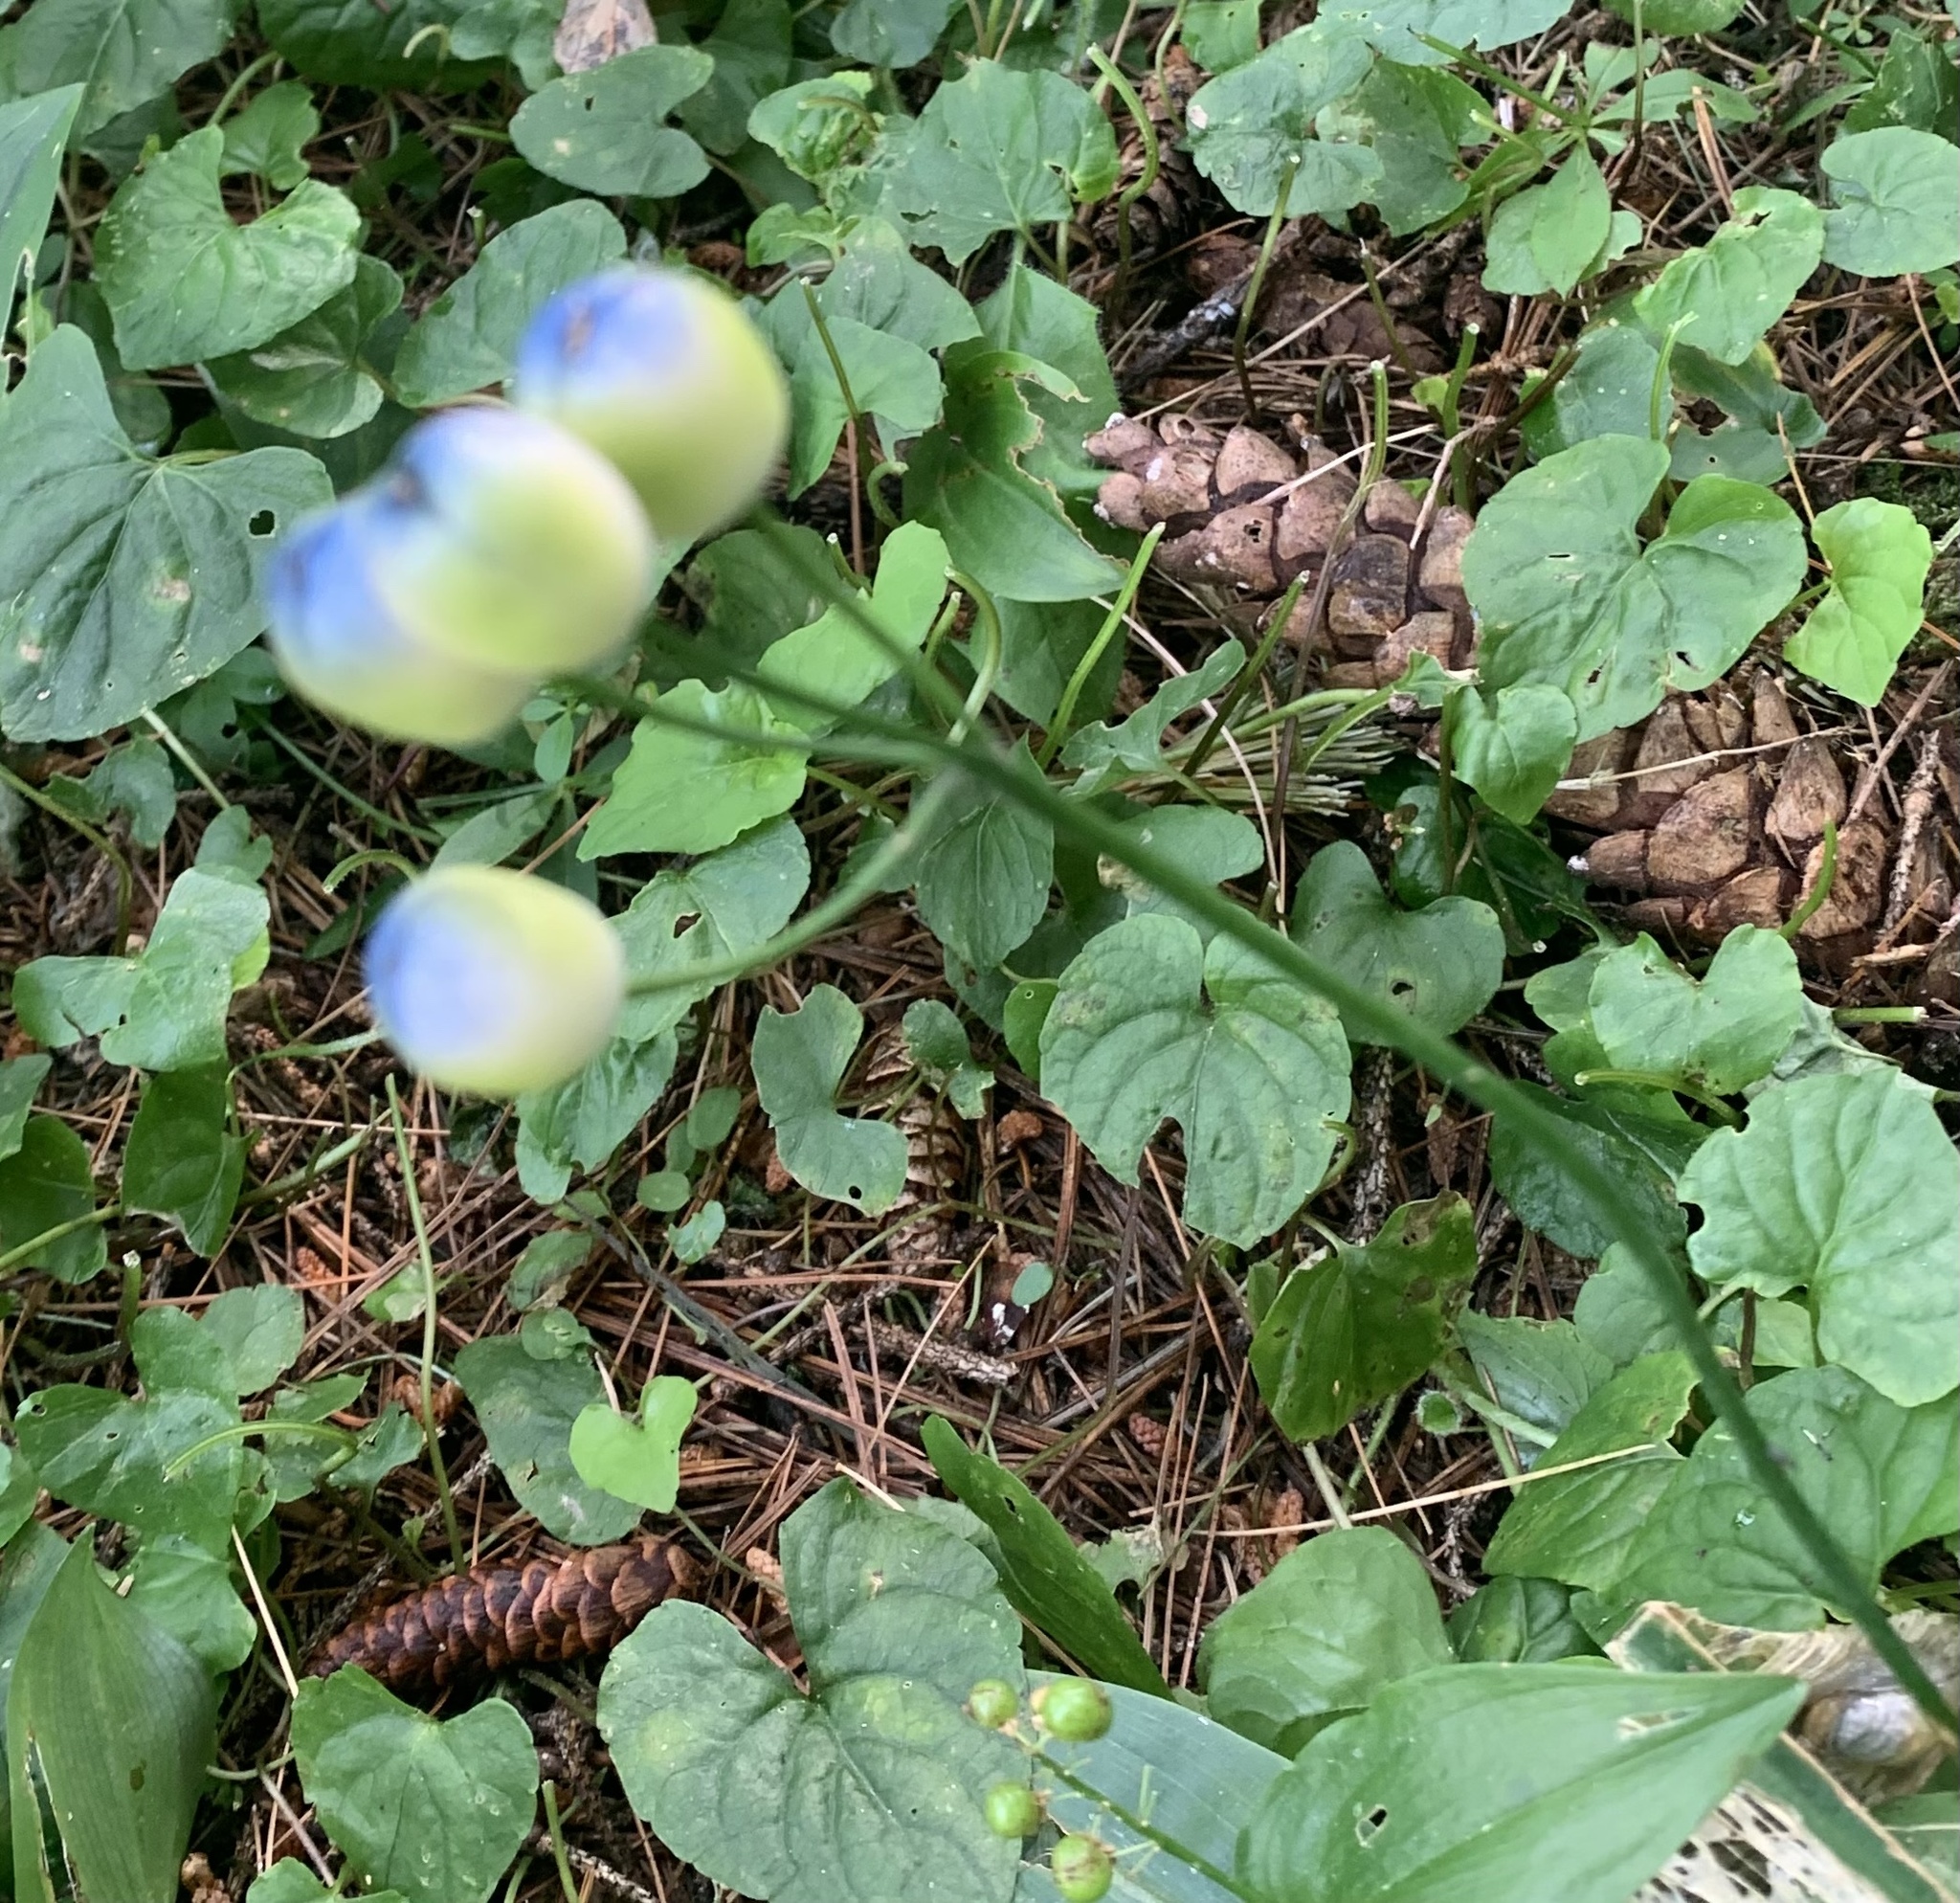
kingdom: Plantae
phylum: Tracheophyta
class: Liliopsida
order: Liliales
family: Liliaceae
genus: Clintonia
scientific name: Clintonia borealis
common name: Yellow clintonia
